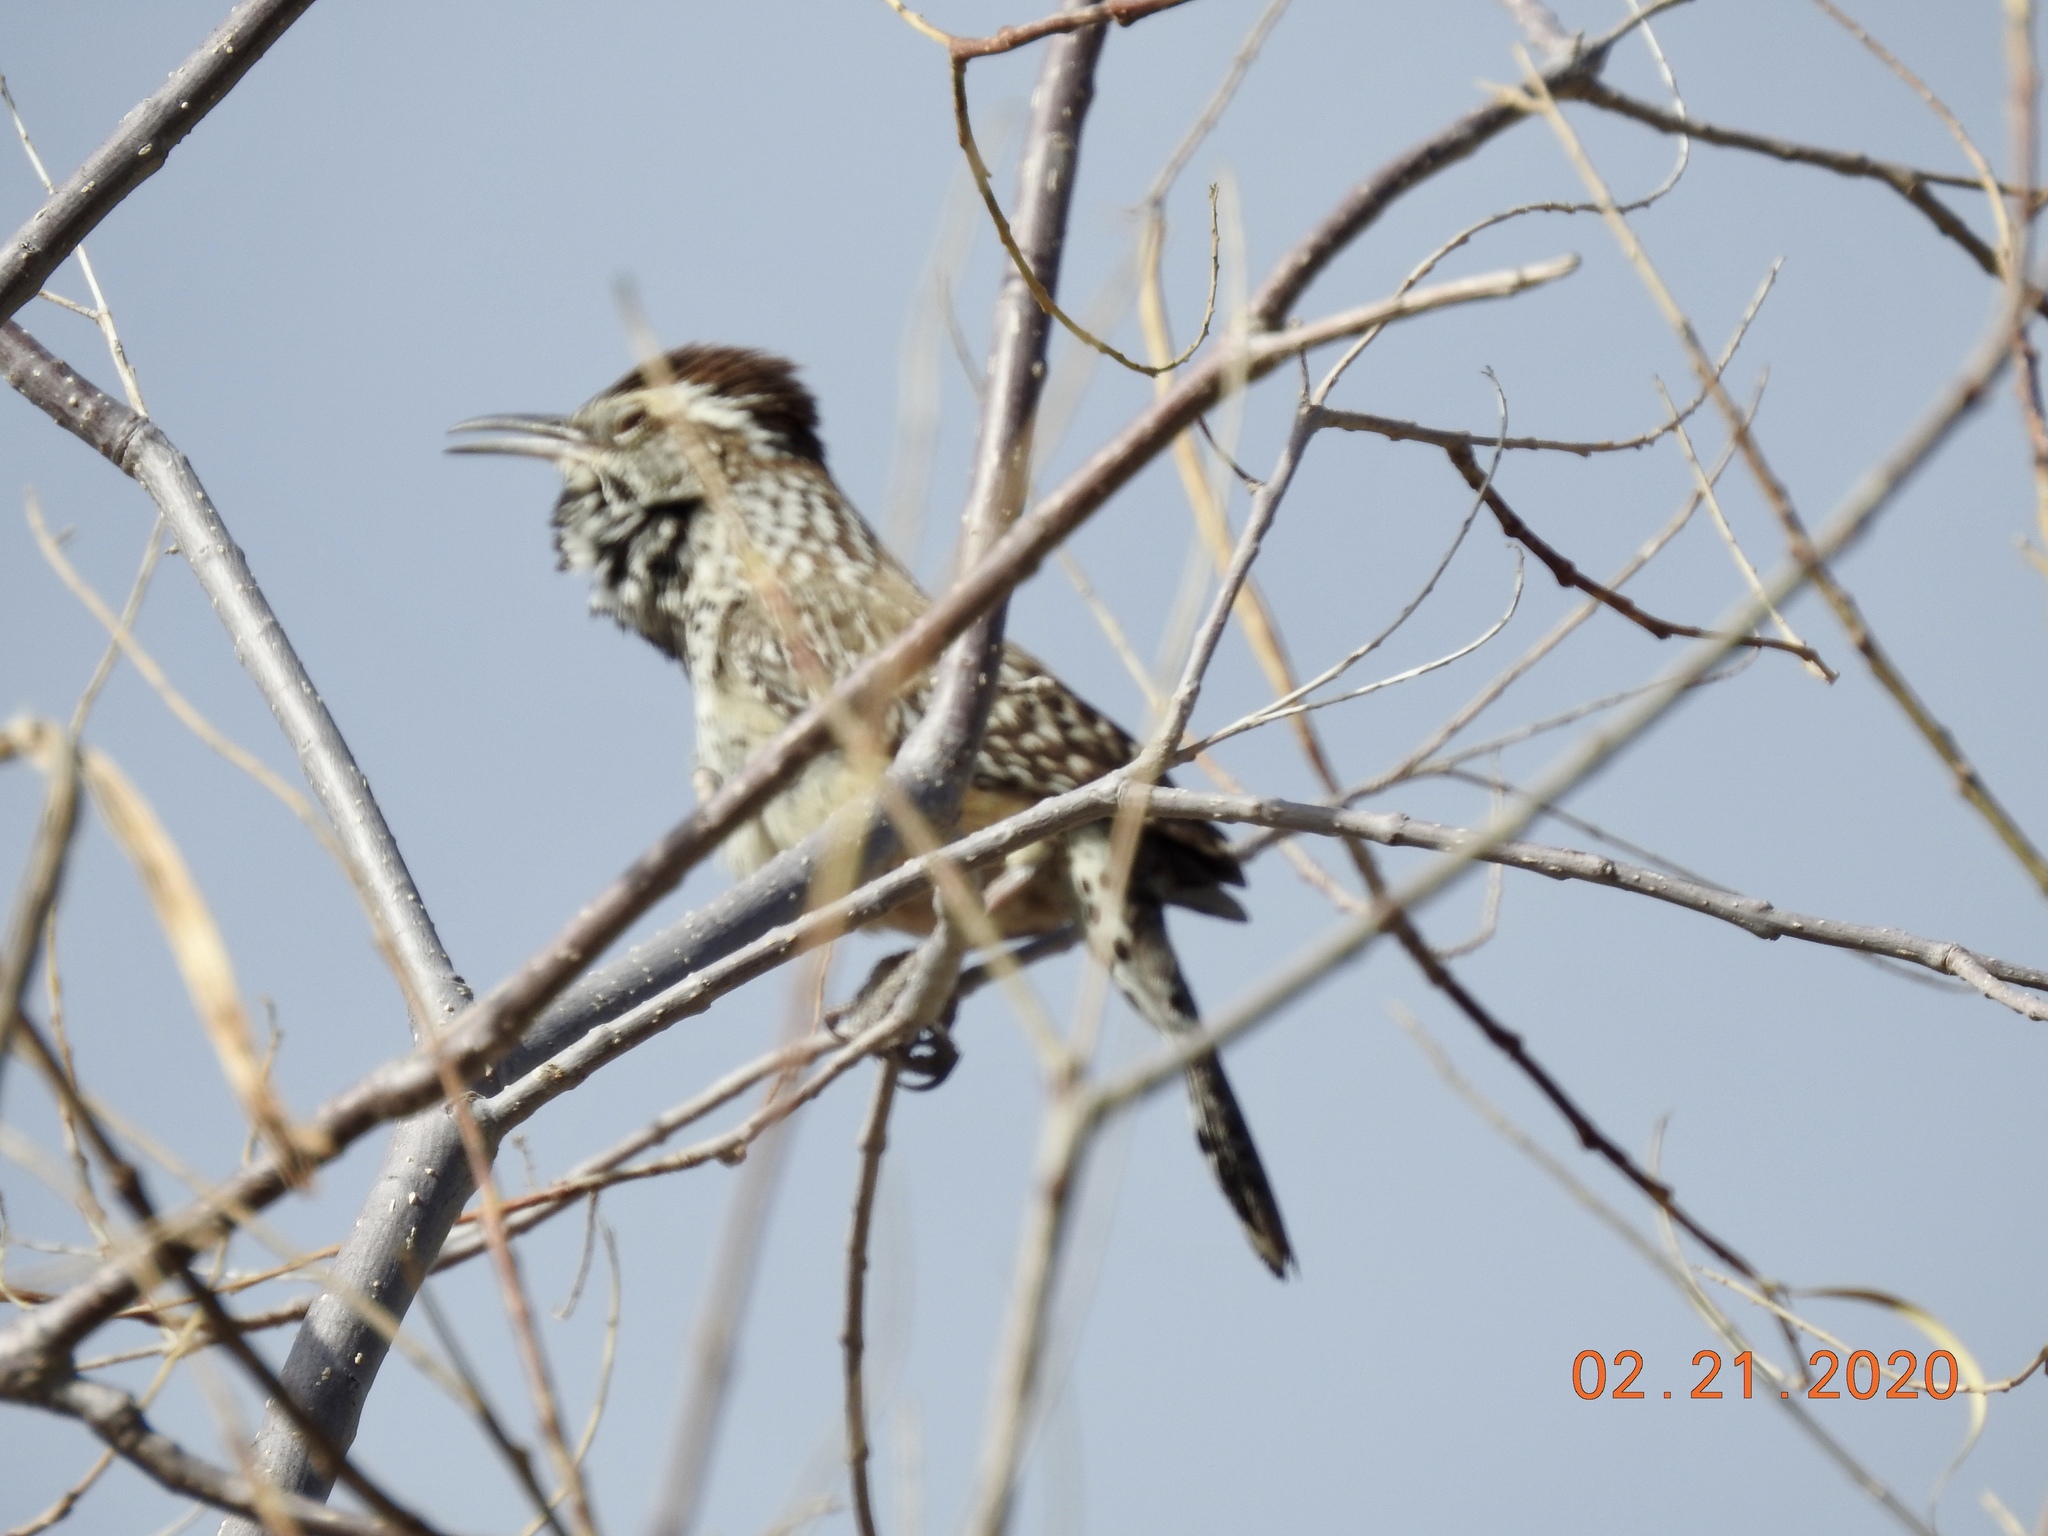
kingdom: Animalia
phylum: Chordata
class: Aves
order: Passeriformes
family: Troglodytidae
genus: Campylorhynchus
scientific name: Campylorhynchus brunneicapillus
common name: Cactus wren
